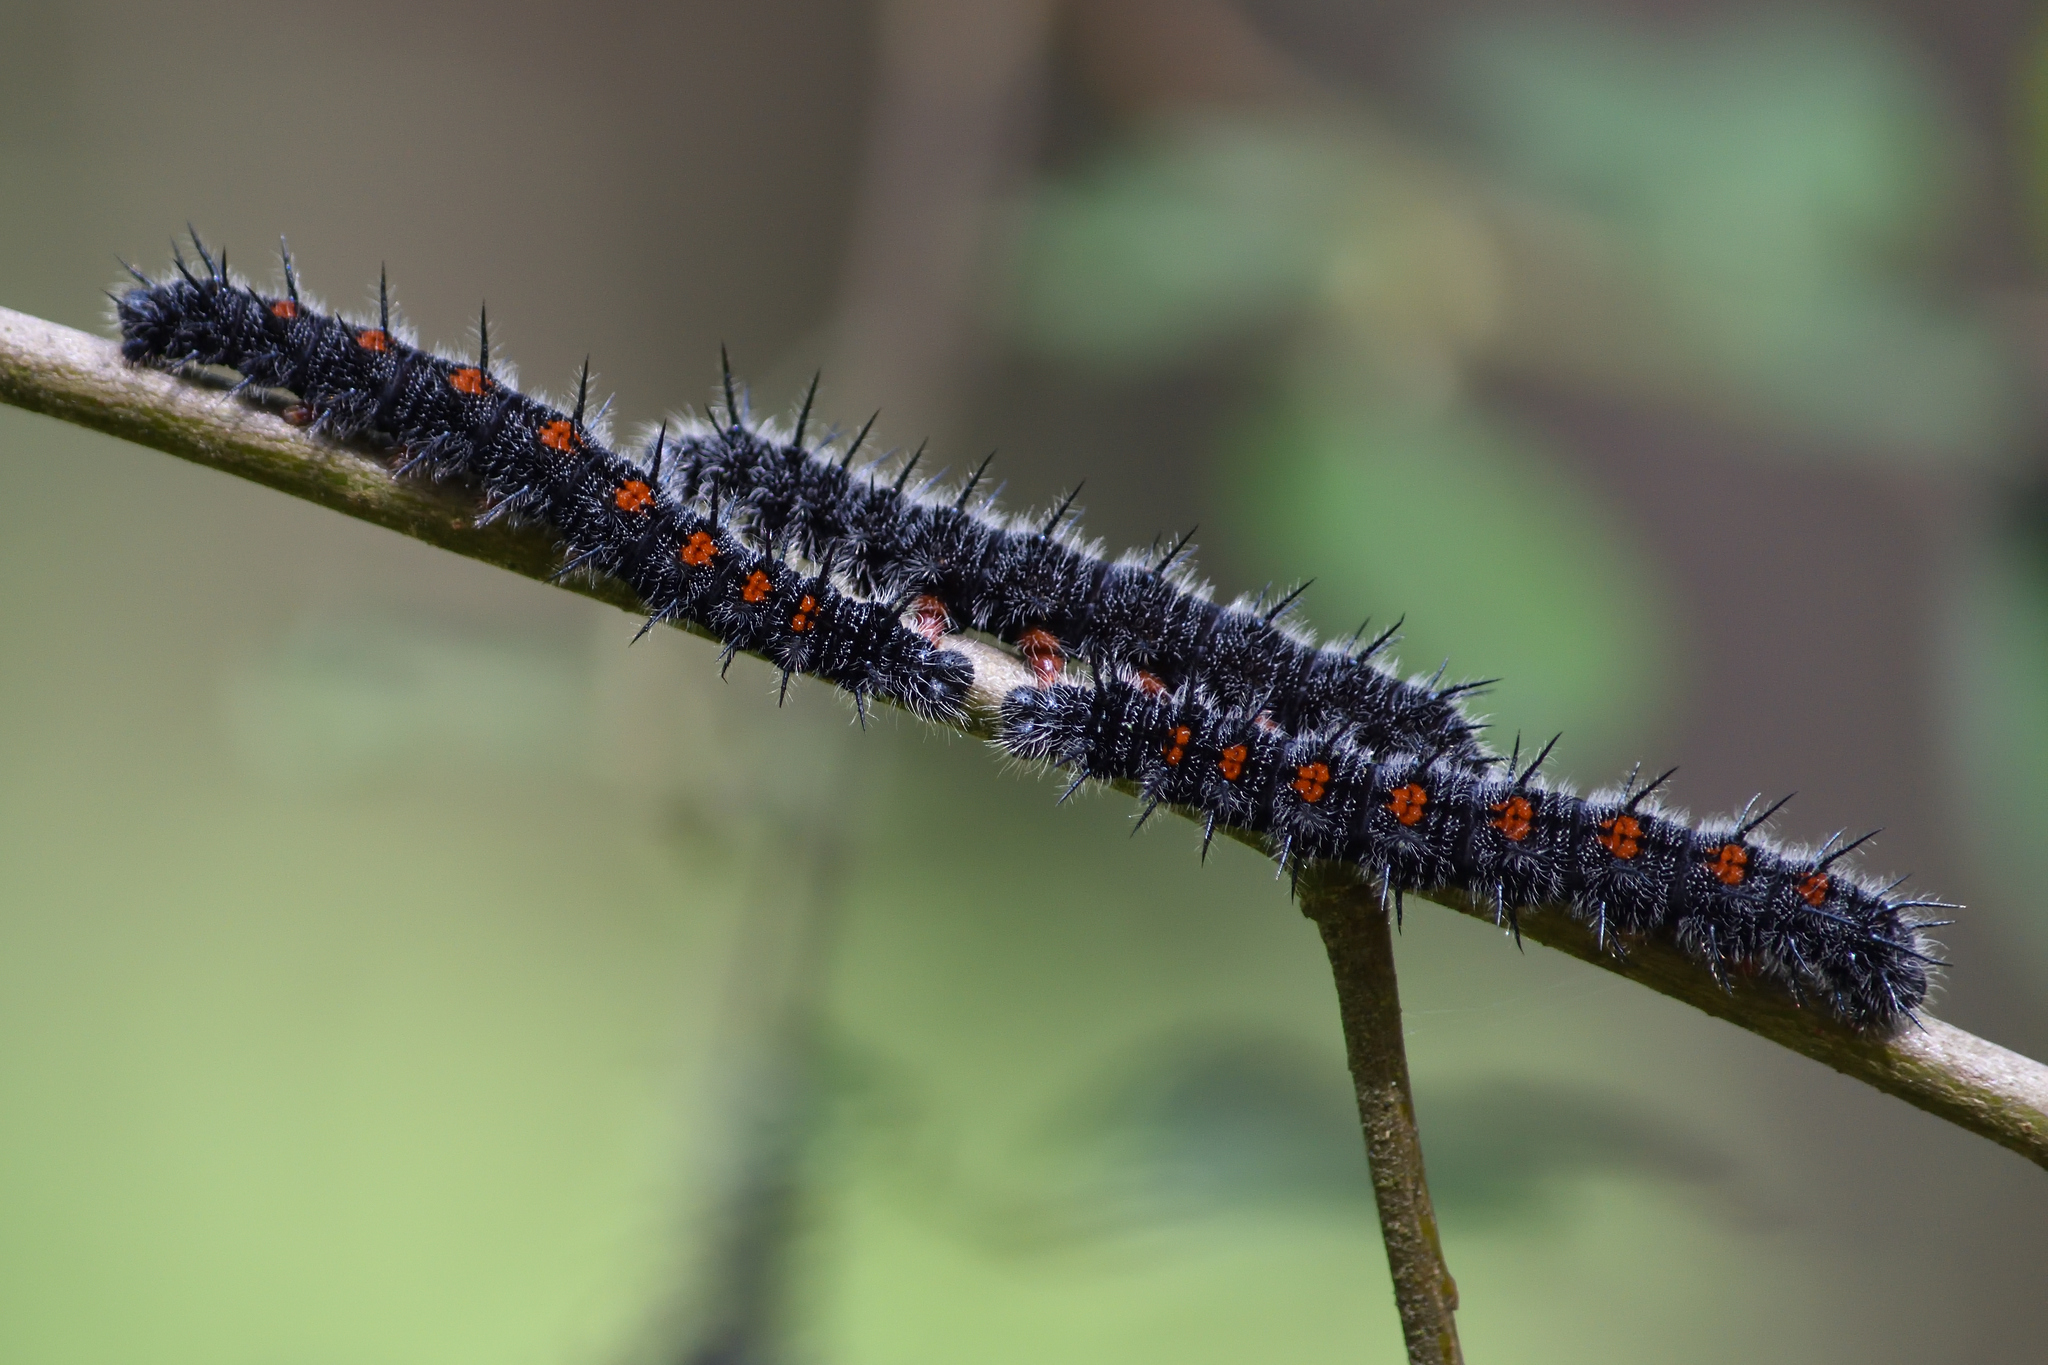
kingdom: Animalia
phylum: Arthropoda
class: Insecta
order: Lepidoptera
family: Nymphalidae
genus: Nymphalis
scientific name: Nymphalis antiopa
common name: Camberwell beauty
